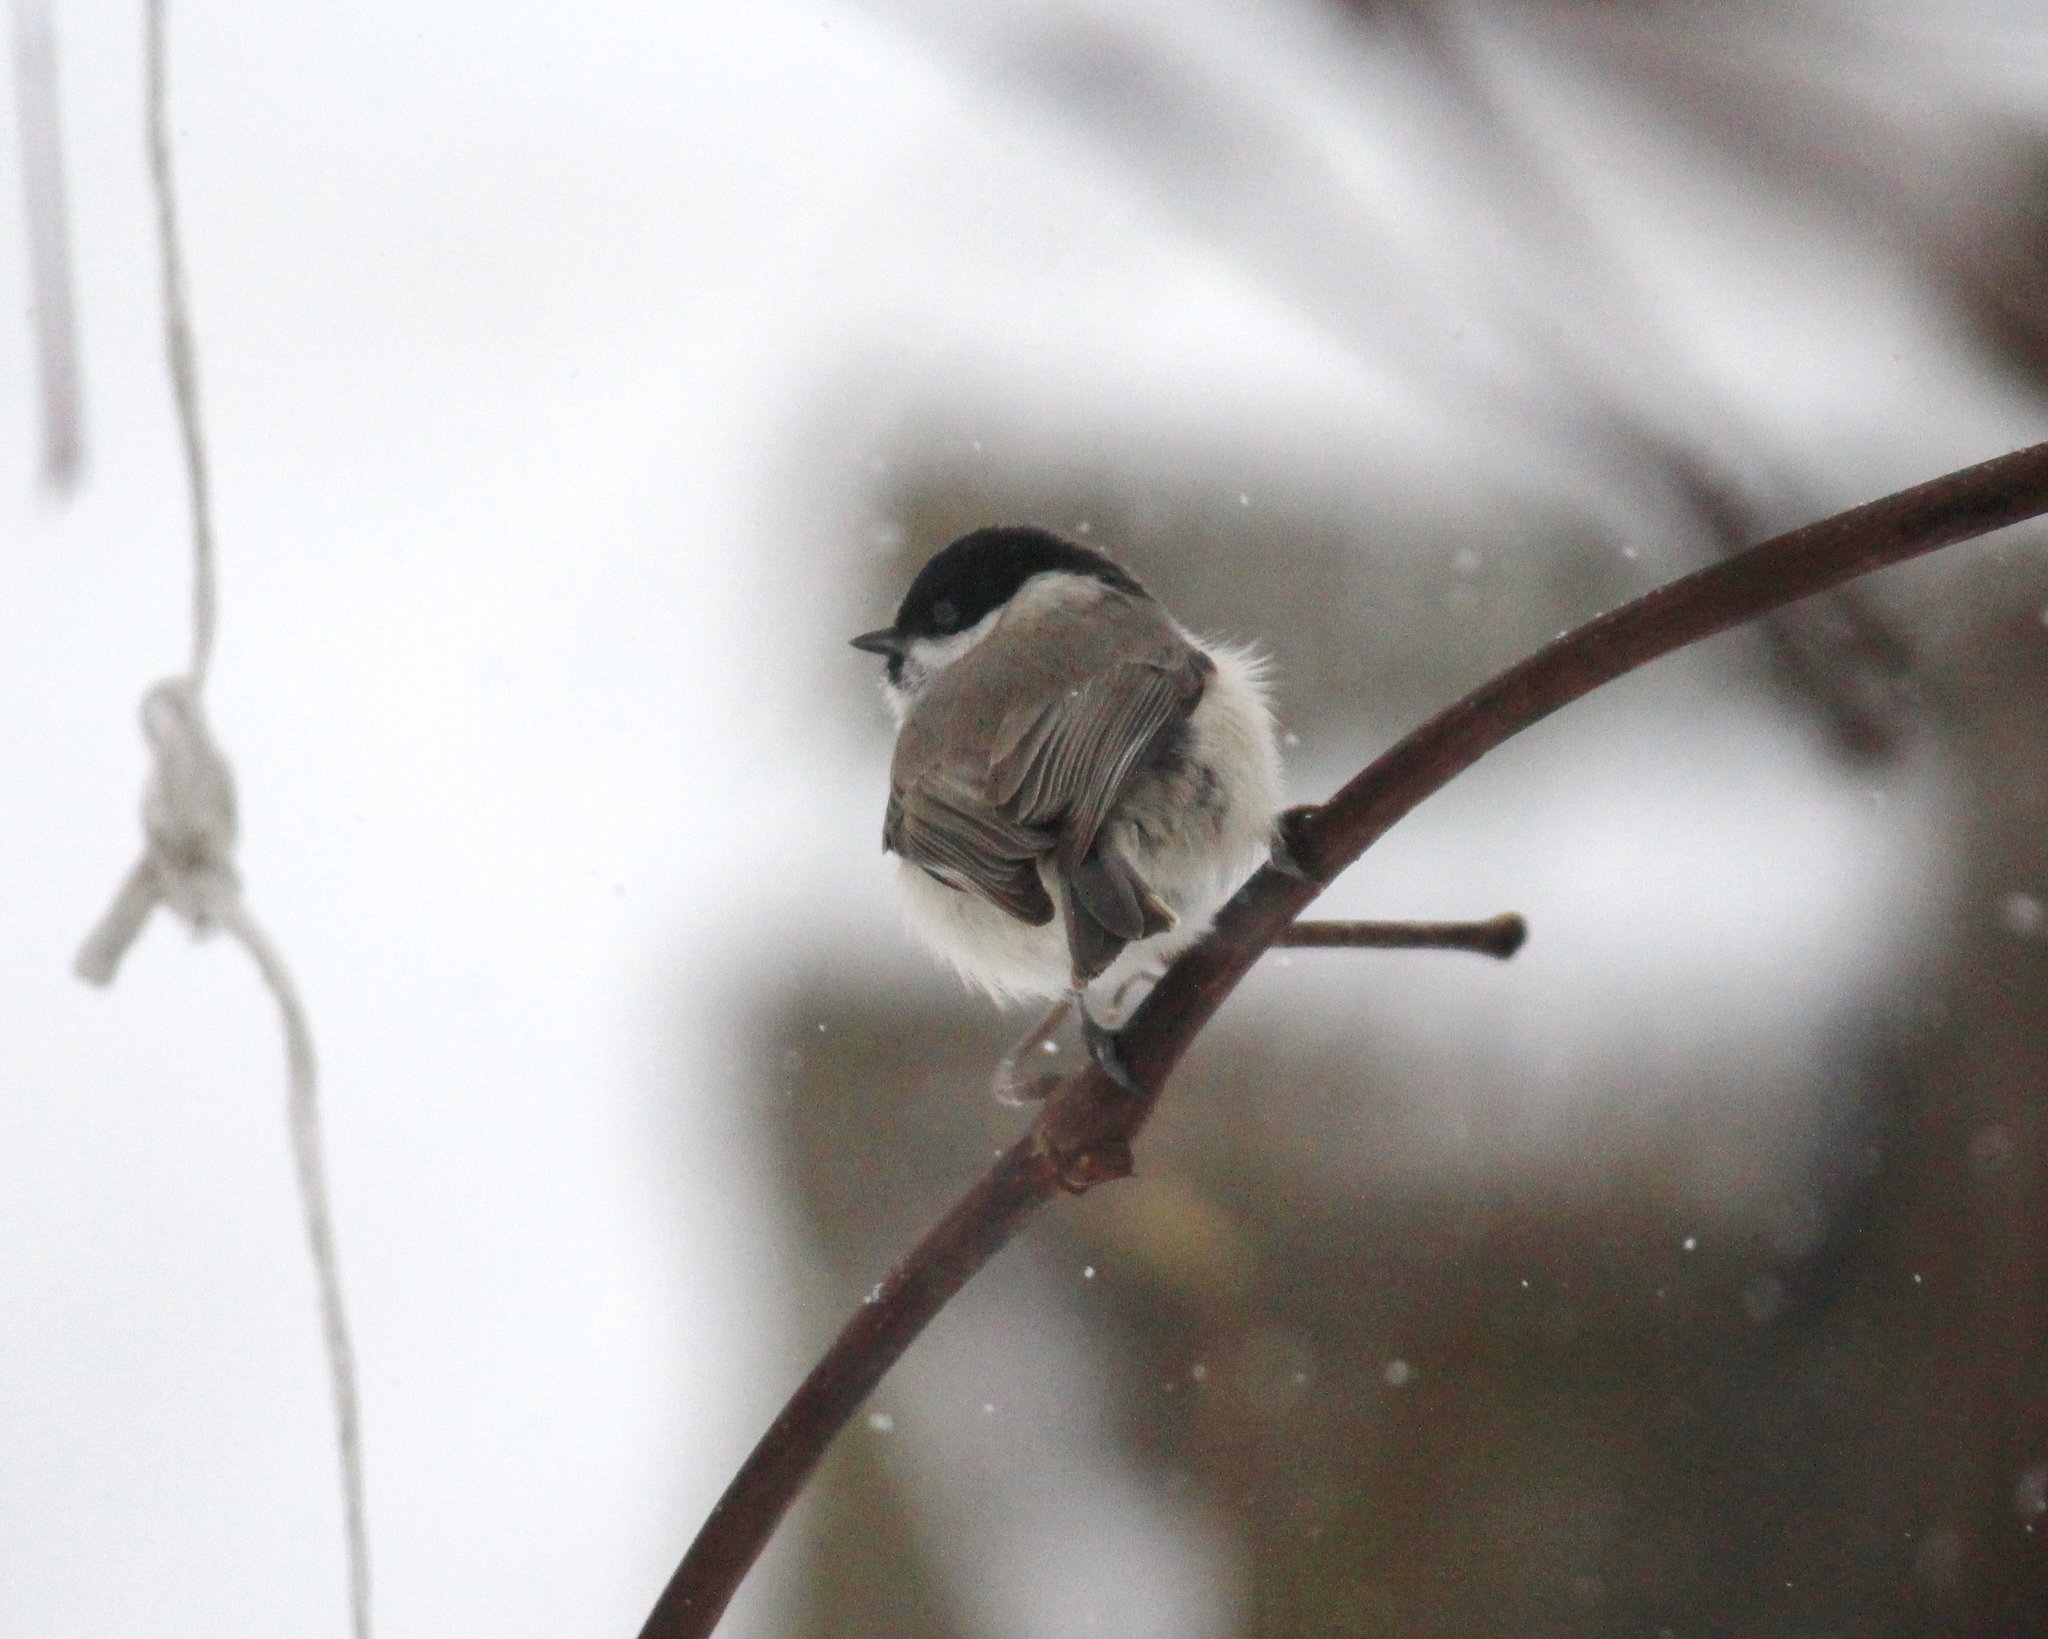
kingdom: Animalia
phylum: Chordata
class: Aves
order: Passeriformes
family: Paridae
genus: Poecile
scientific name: Poecile palustris
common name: Marsh tit
